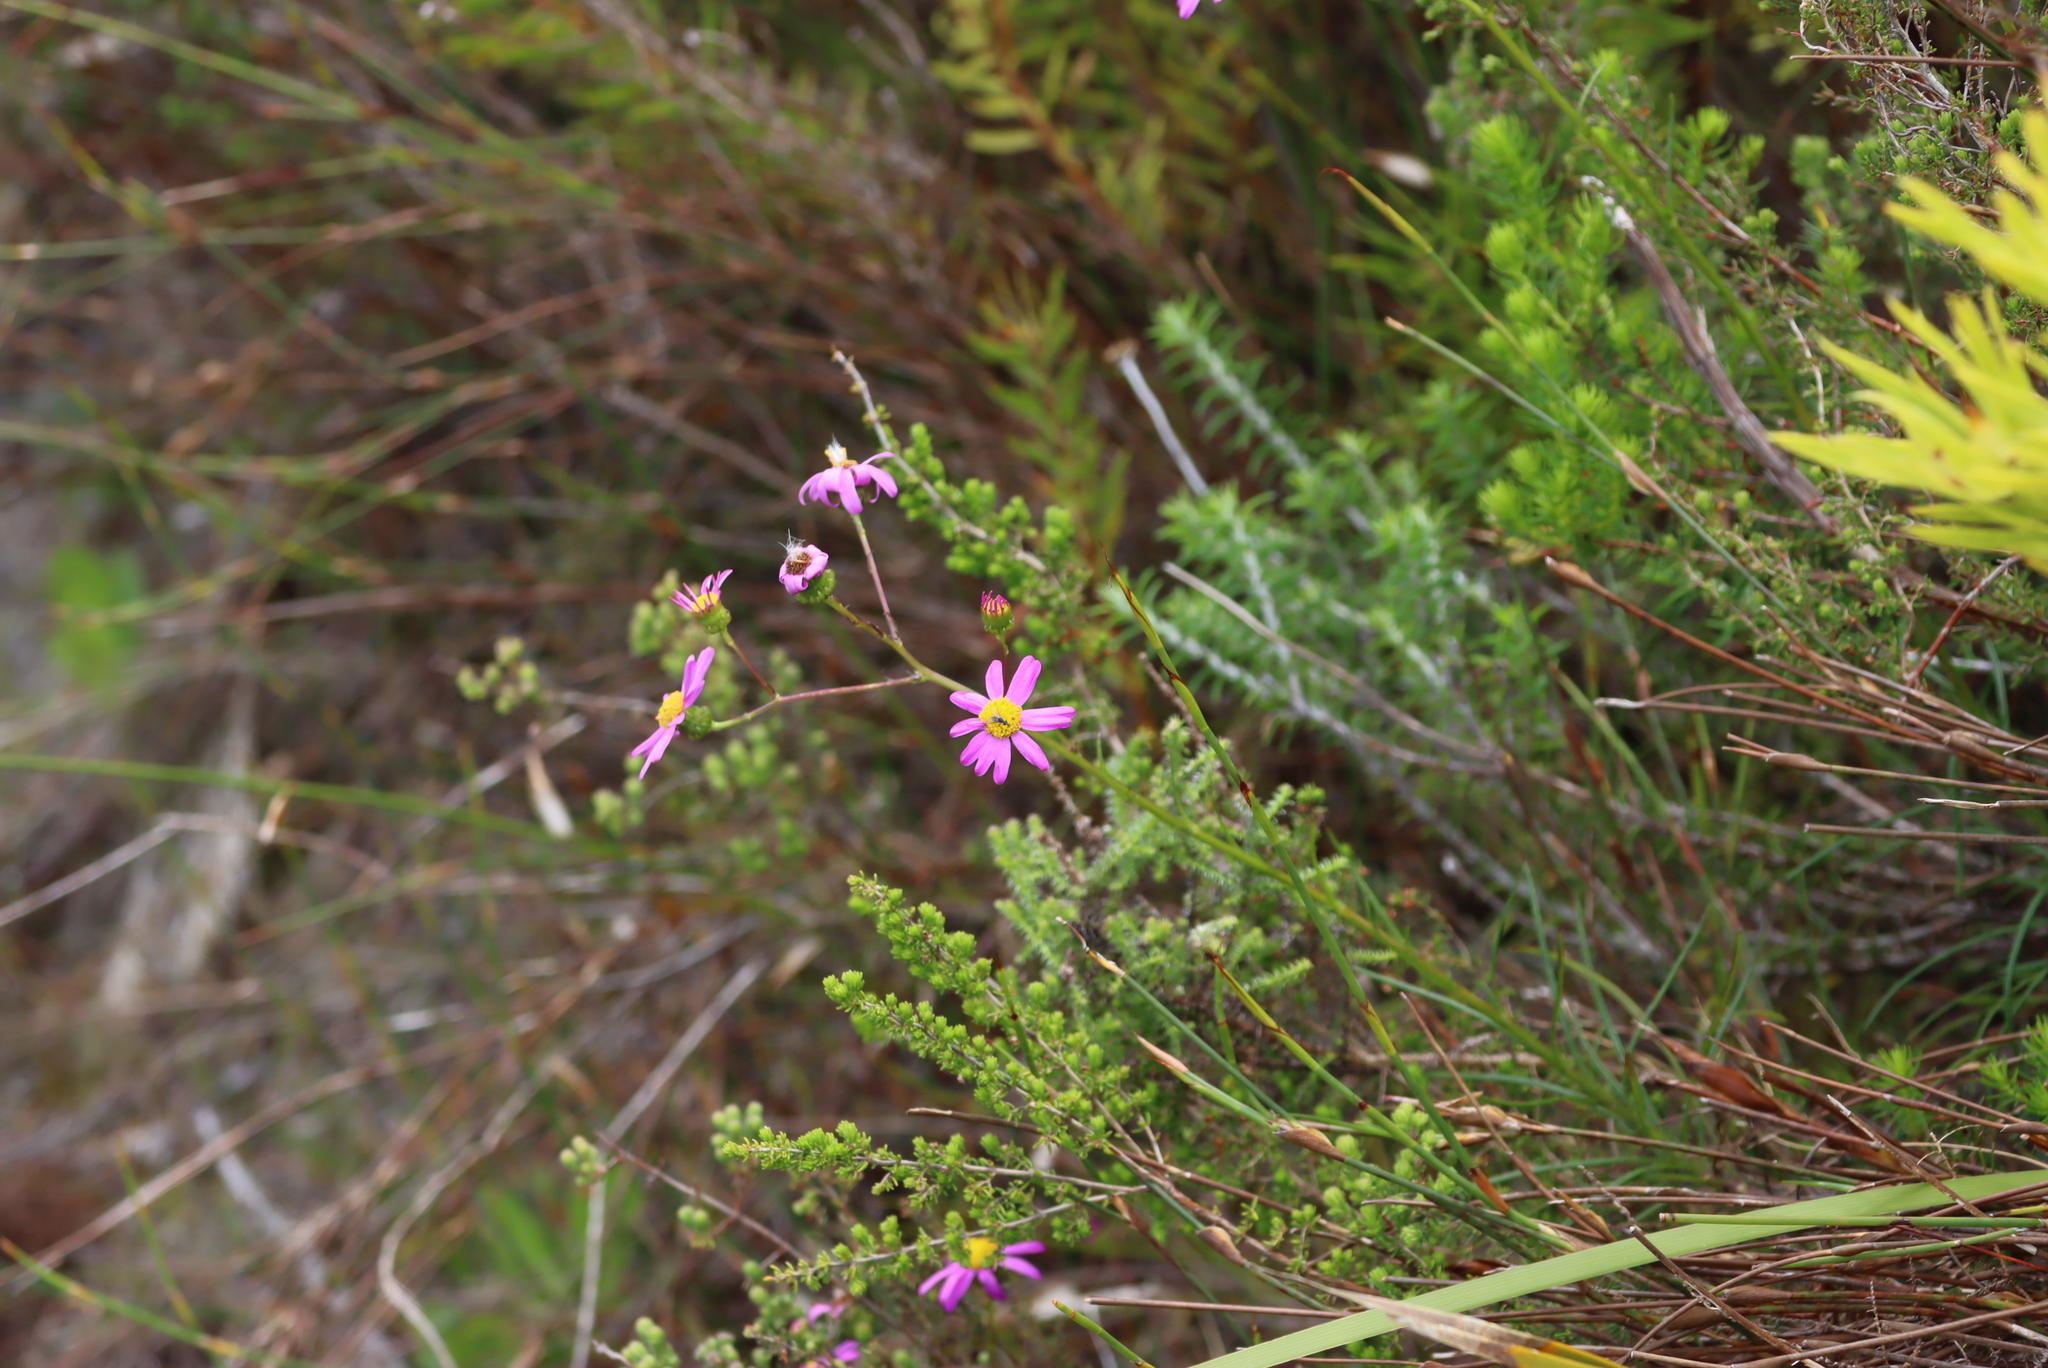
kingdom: Plantae
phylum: Tracheophyta
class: Magnoliopsida
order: Asterales
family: Asteraceae
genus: Senecio
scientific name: Senecio umbellatus
